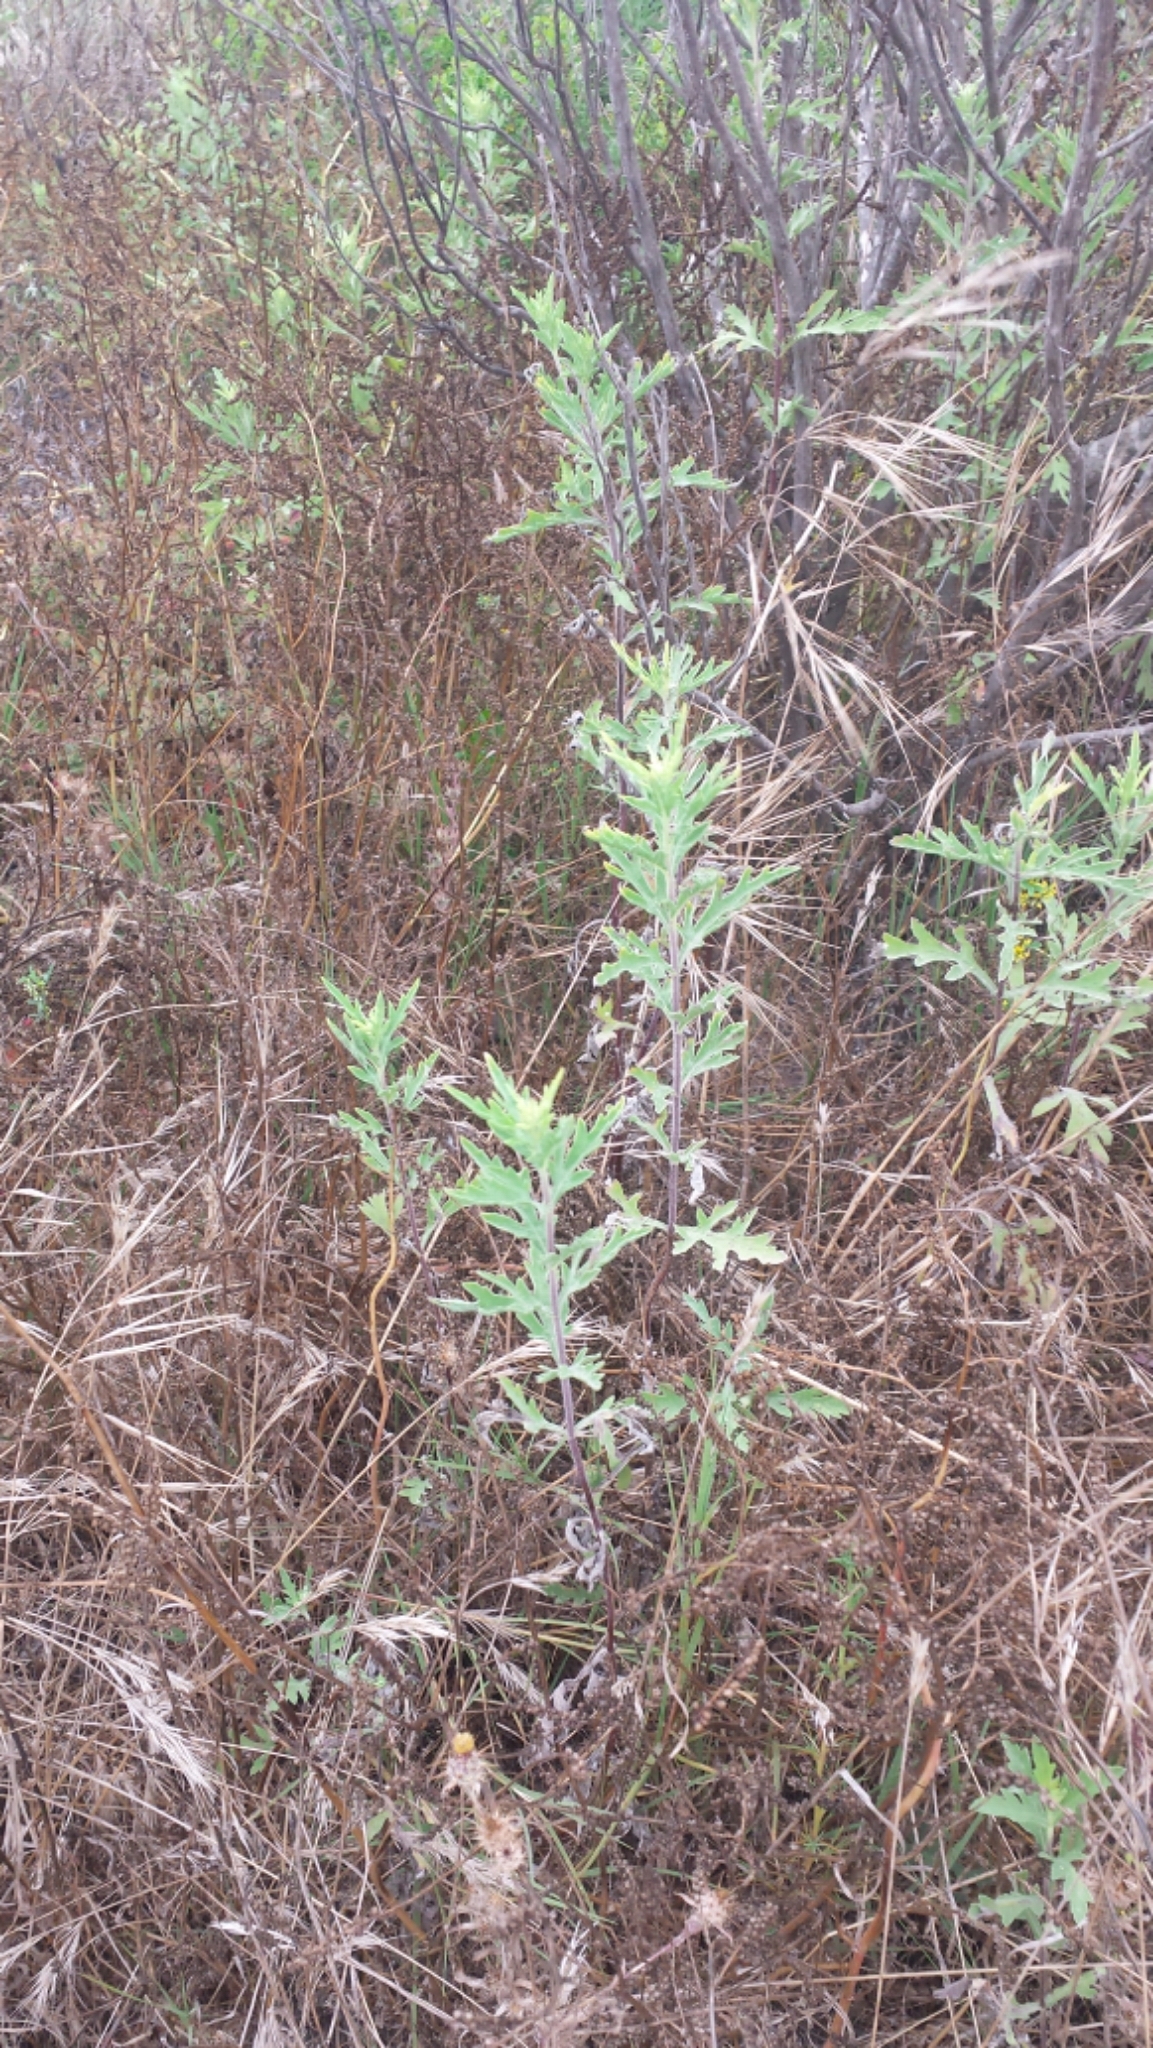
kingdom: Plantae
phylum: Tracheophyta
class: Magnoliopsida
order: Asterales
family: Asteraceae
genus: Ambrosia
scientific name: Ambrosia psilostachya
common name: Perennial ragweed
